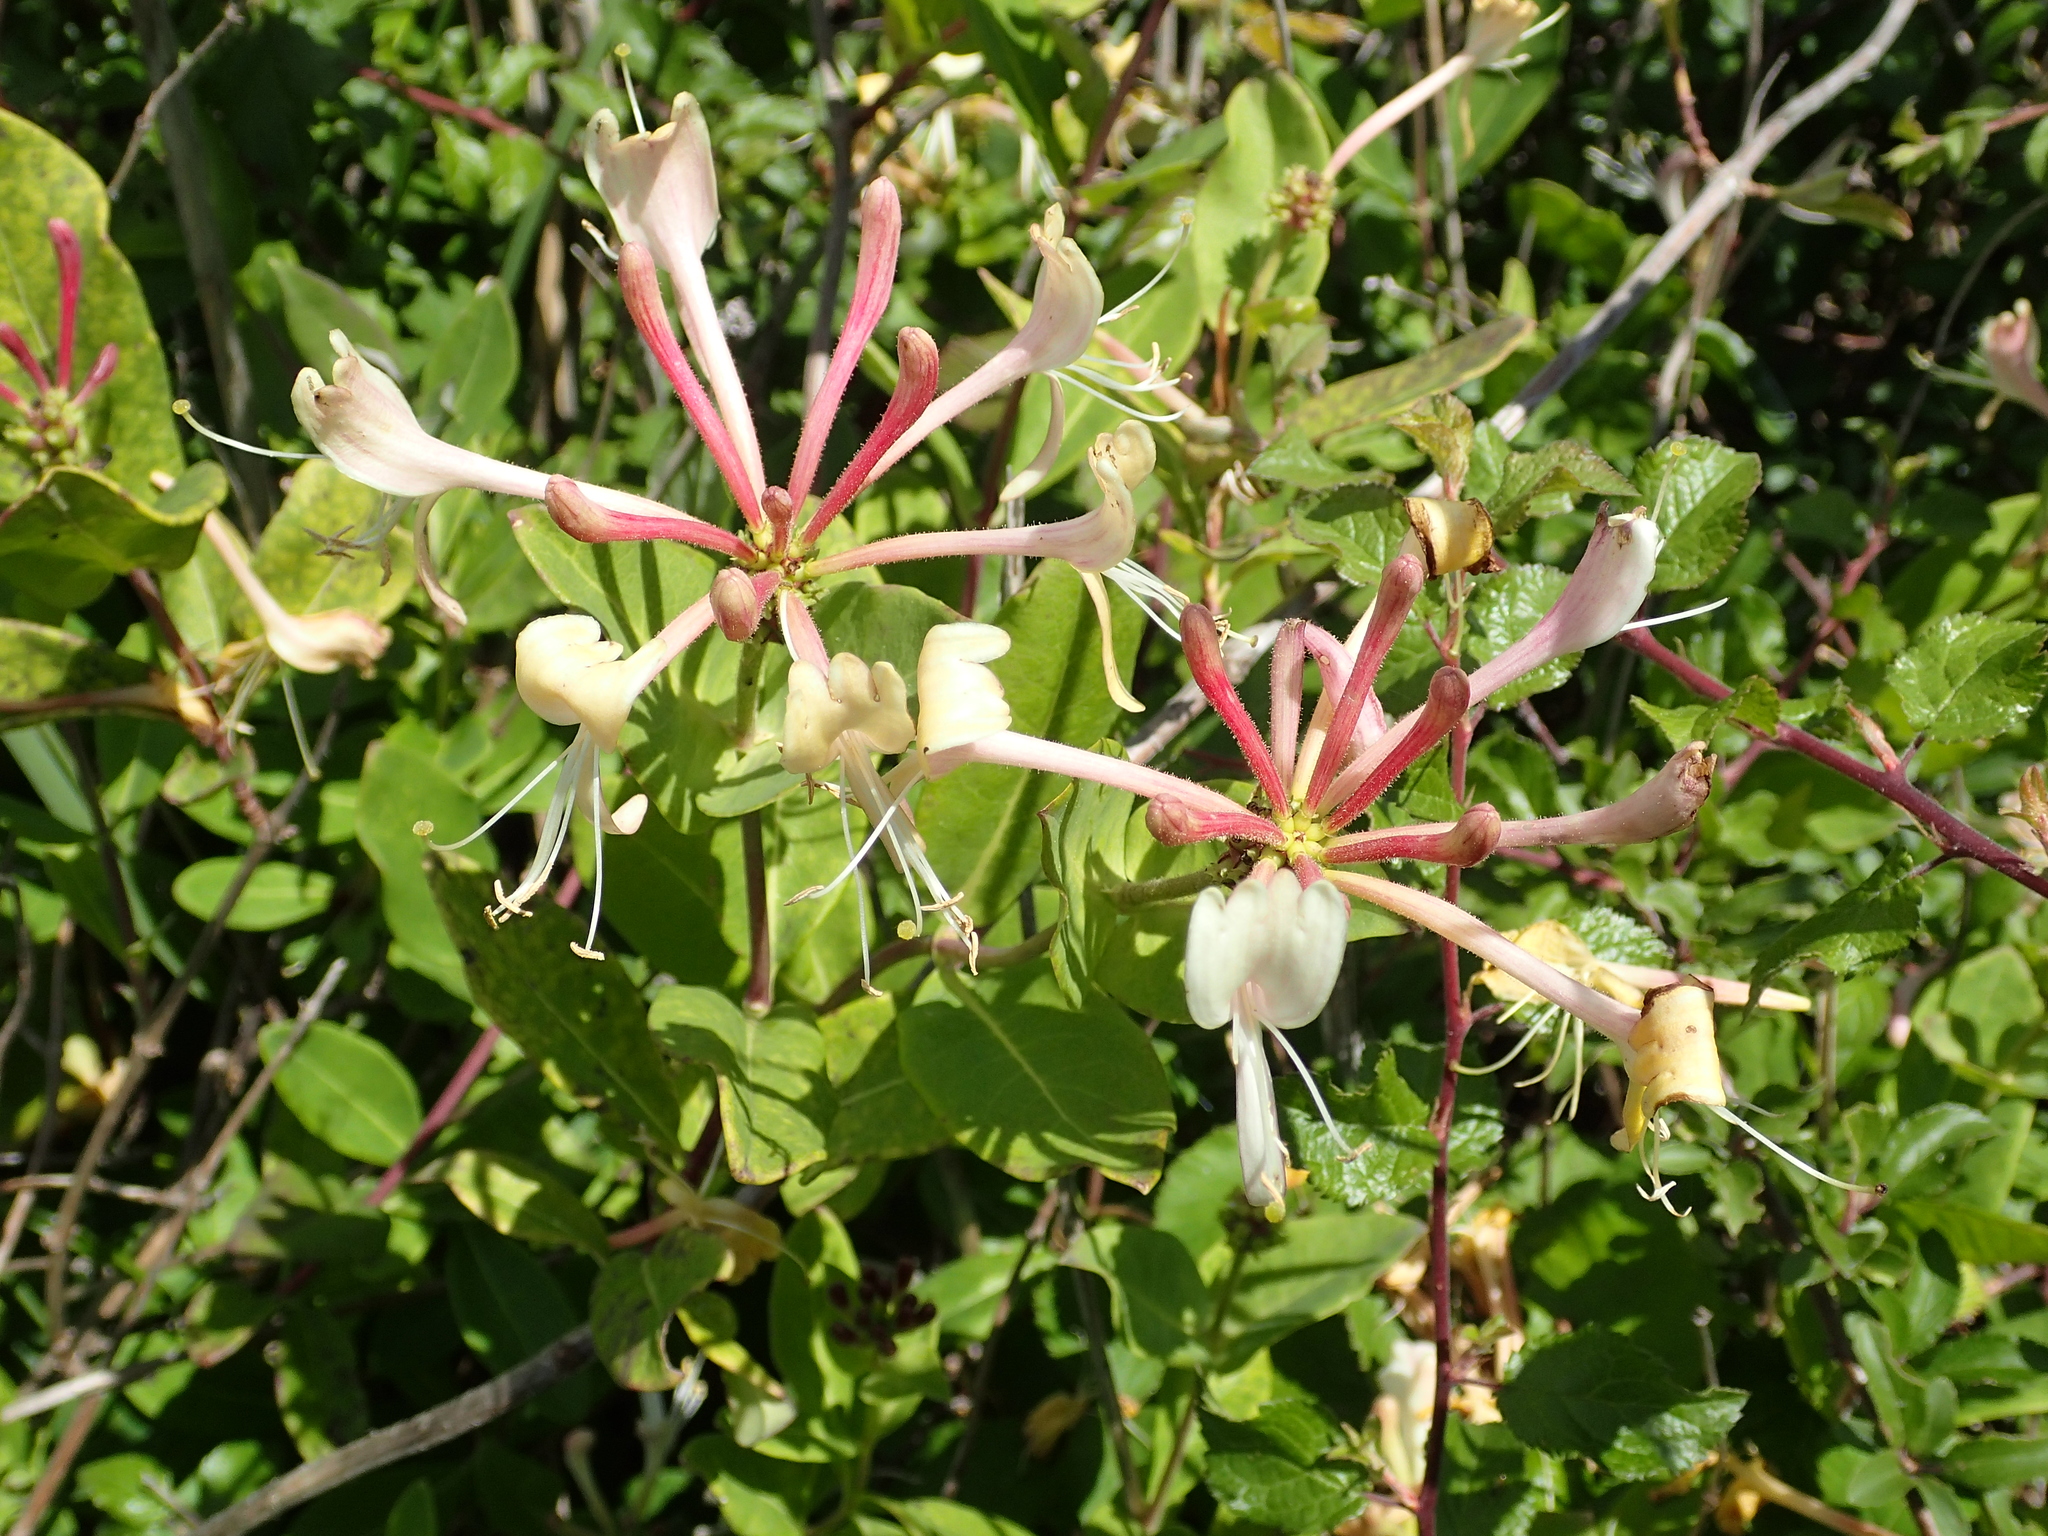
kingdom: Plantae
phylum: Tracheophyta
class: Magnoliopsida
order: Dipsacales
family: Caprifoliaceae
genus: Lonicera
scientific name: Lonicera periclymenum
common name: European honeysuckle
